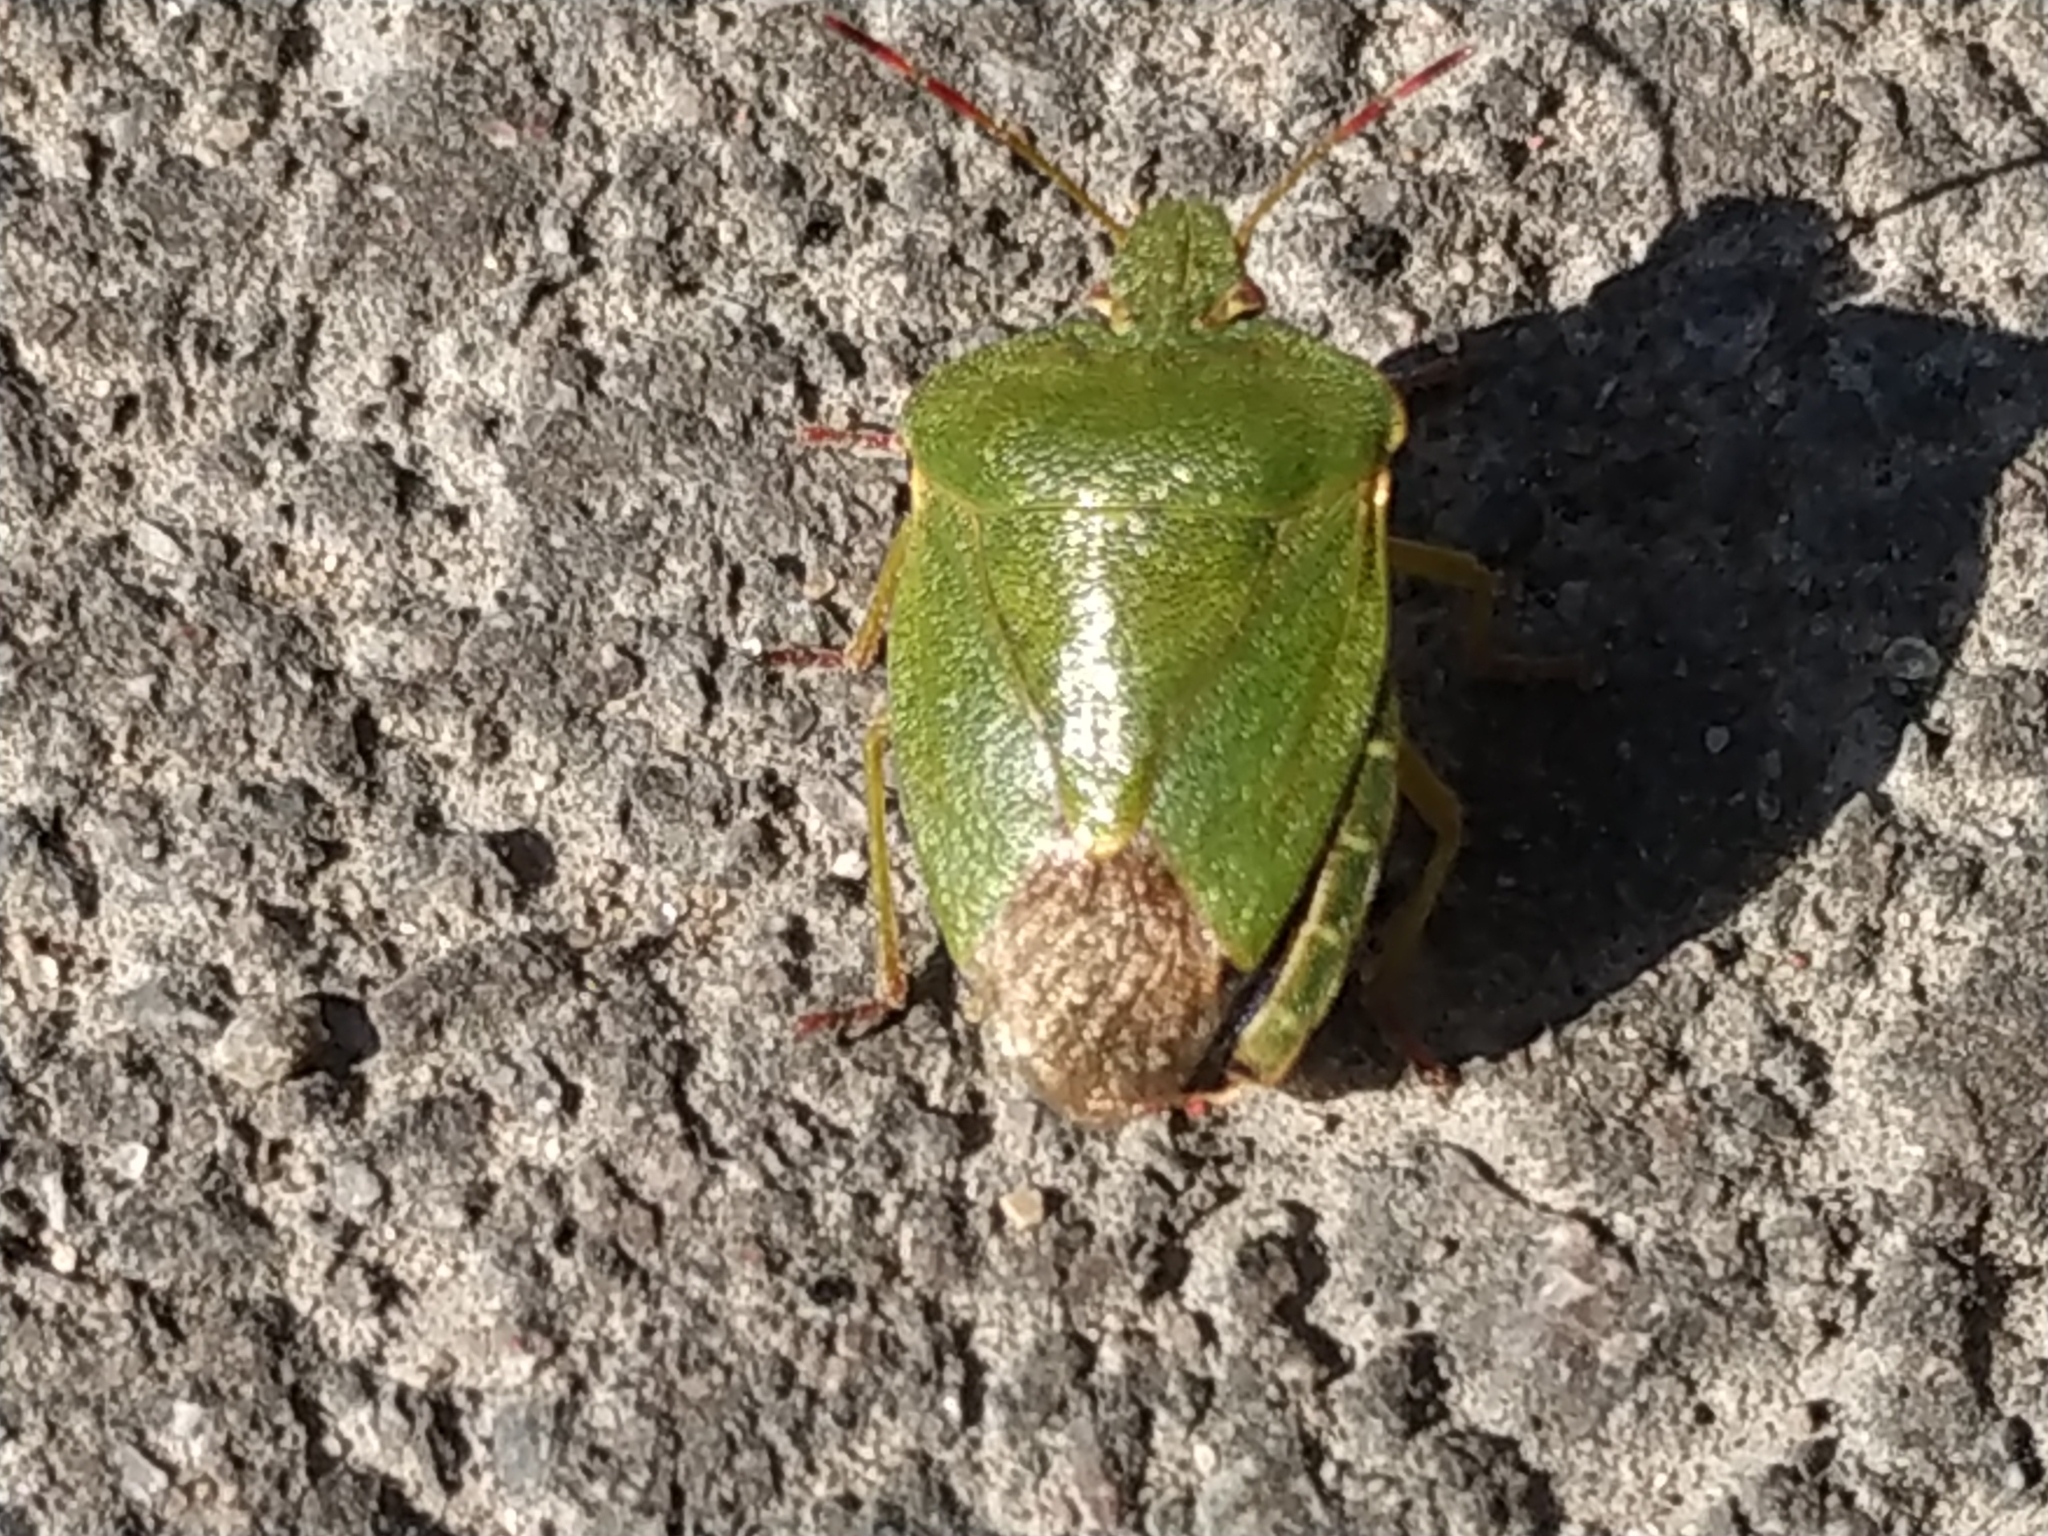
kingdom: Animalia
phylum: Arthropoda
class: Insecta
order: Hemiptera
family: Pentatomidae
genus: Palomena
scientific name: Palomena prasina
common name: Green shieldbug
